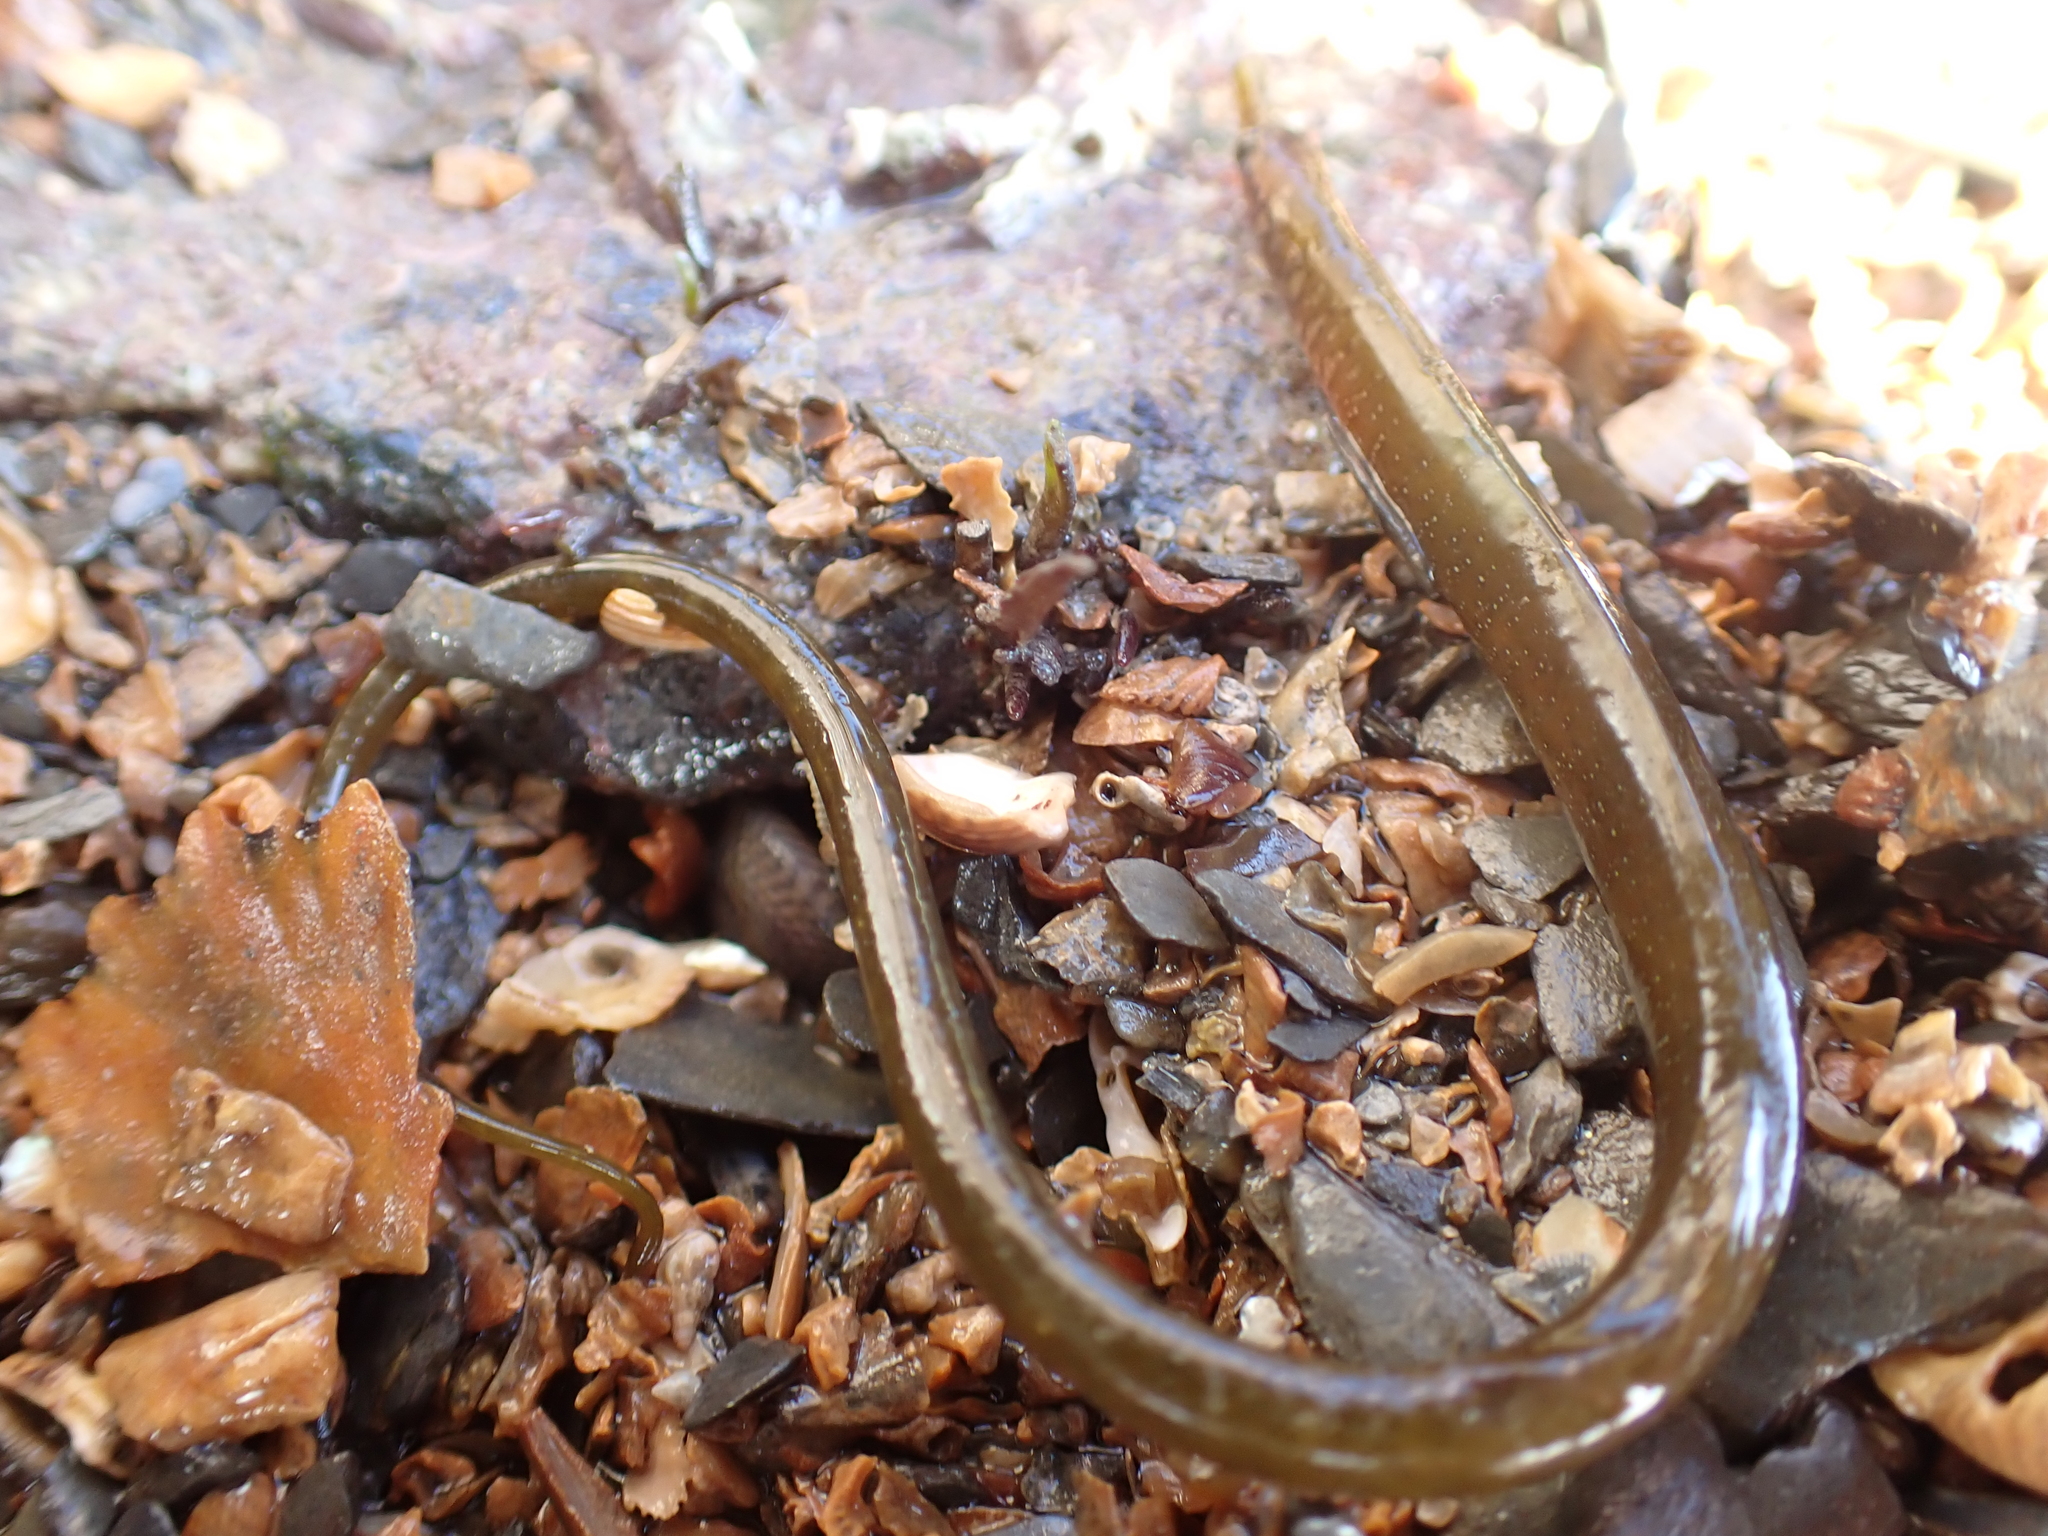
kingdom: Animalia
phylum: Chordata
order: Syngnathiformes
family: Syngnathidae
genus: Nerophis
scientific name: Nerophis lumbriciformis
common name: Worm pipefish
